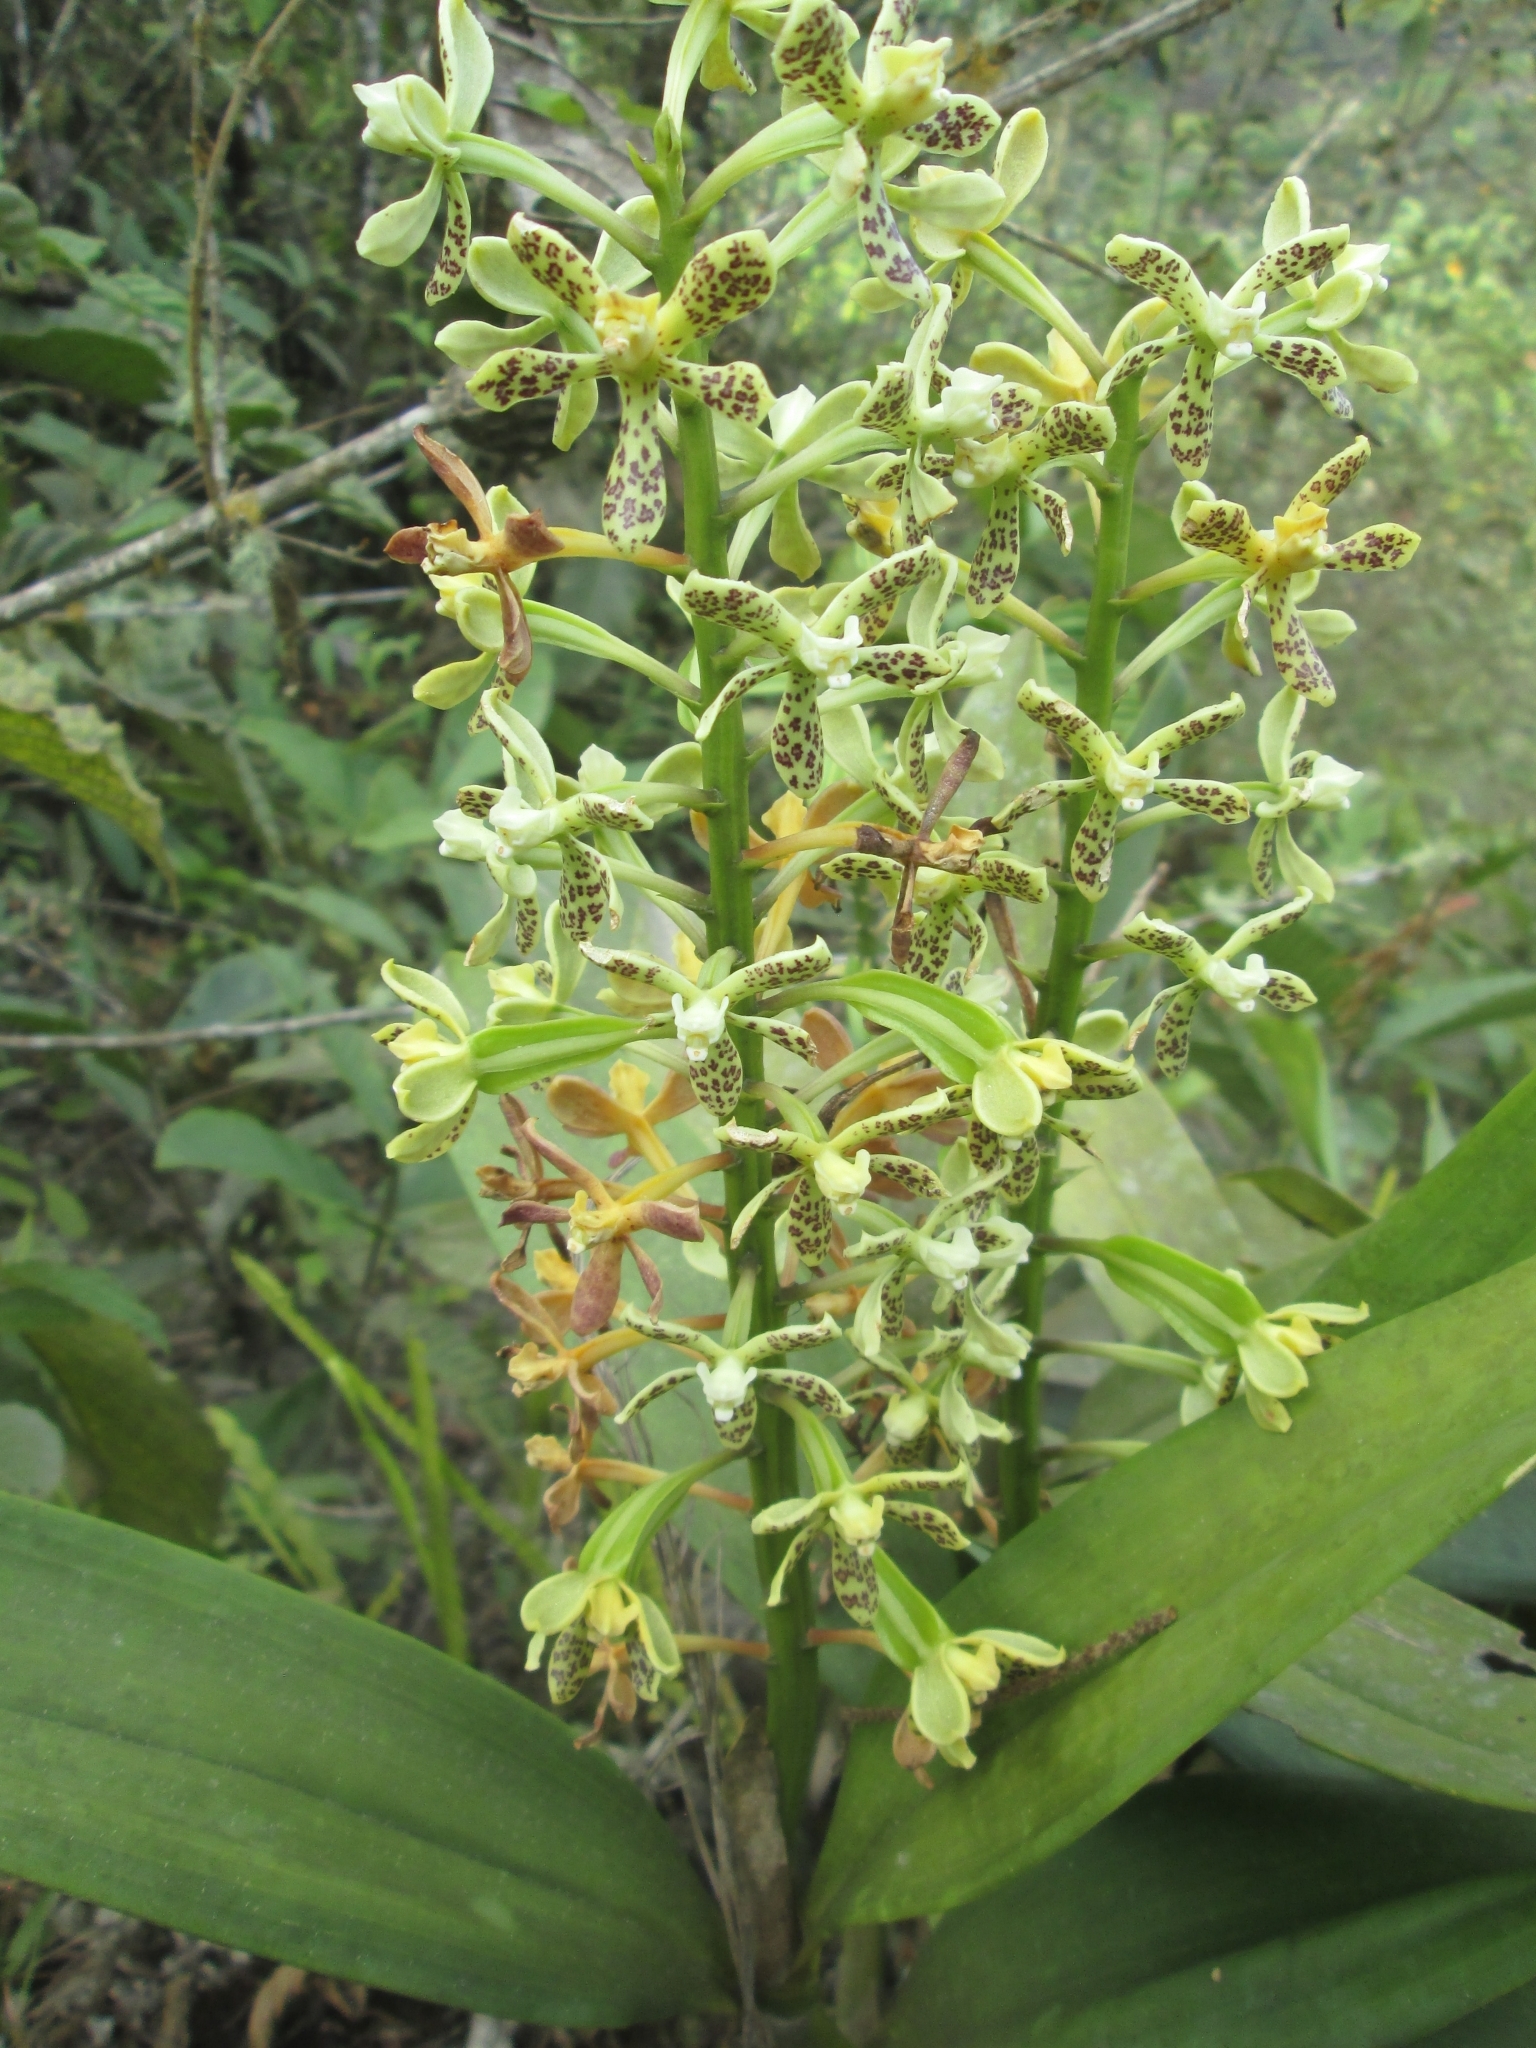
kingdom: Plantae
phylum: Tracheophyta
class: Liliopsida
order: Asparagales
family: Orchidaceae
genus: Prosthechea
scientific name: Prosthechea crassilabia
